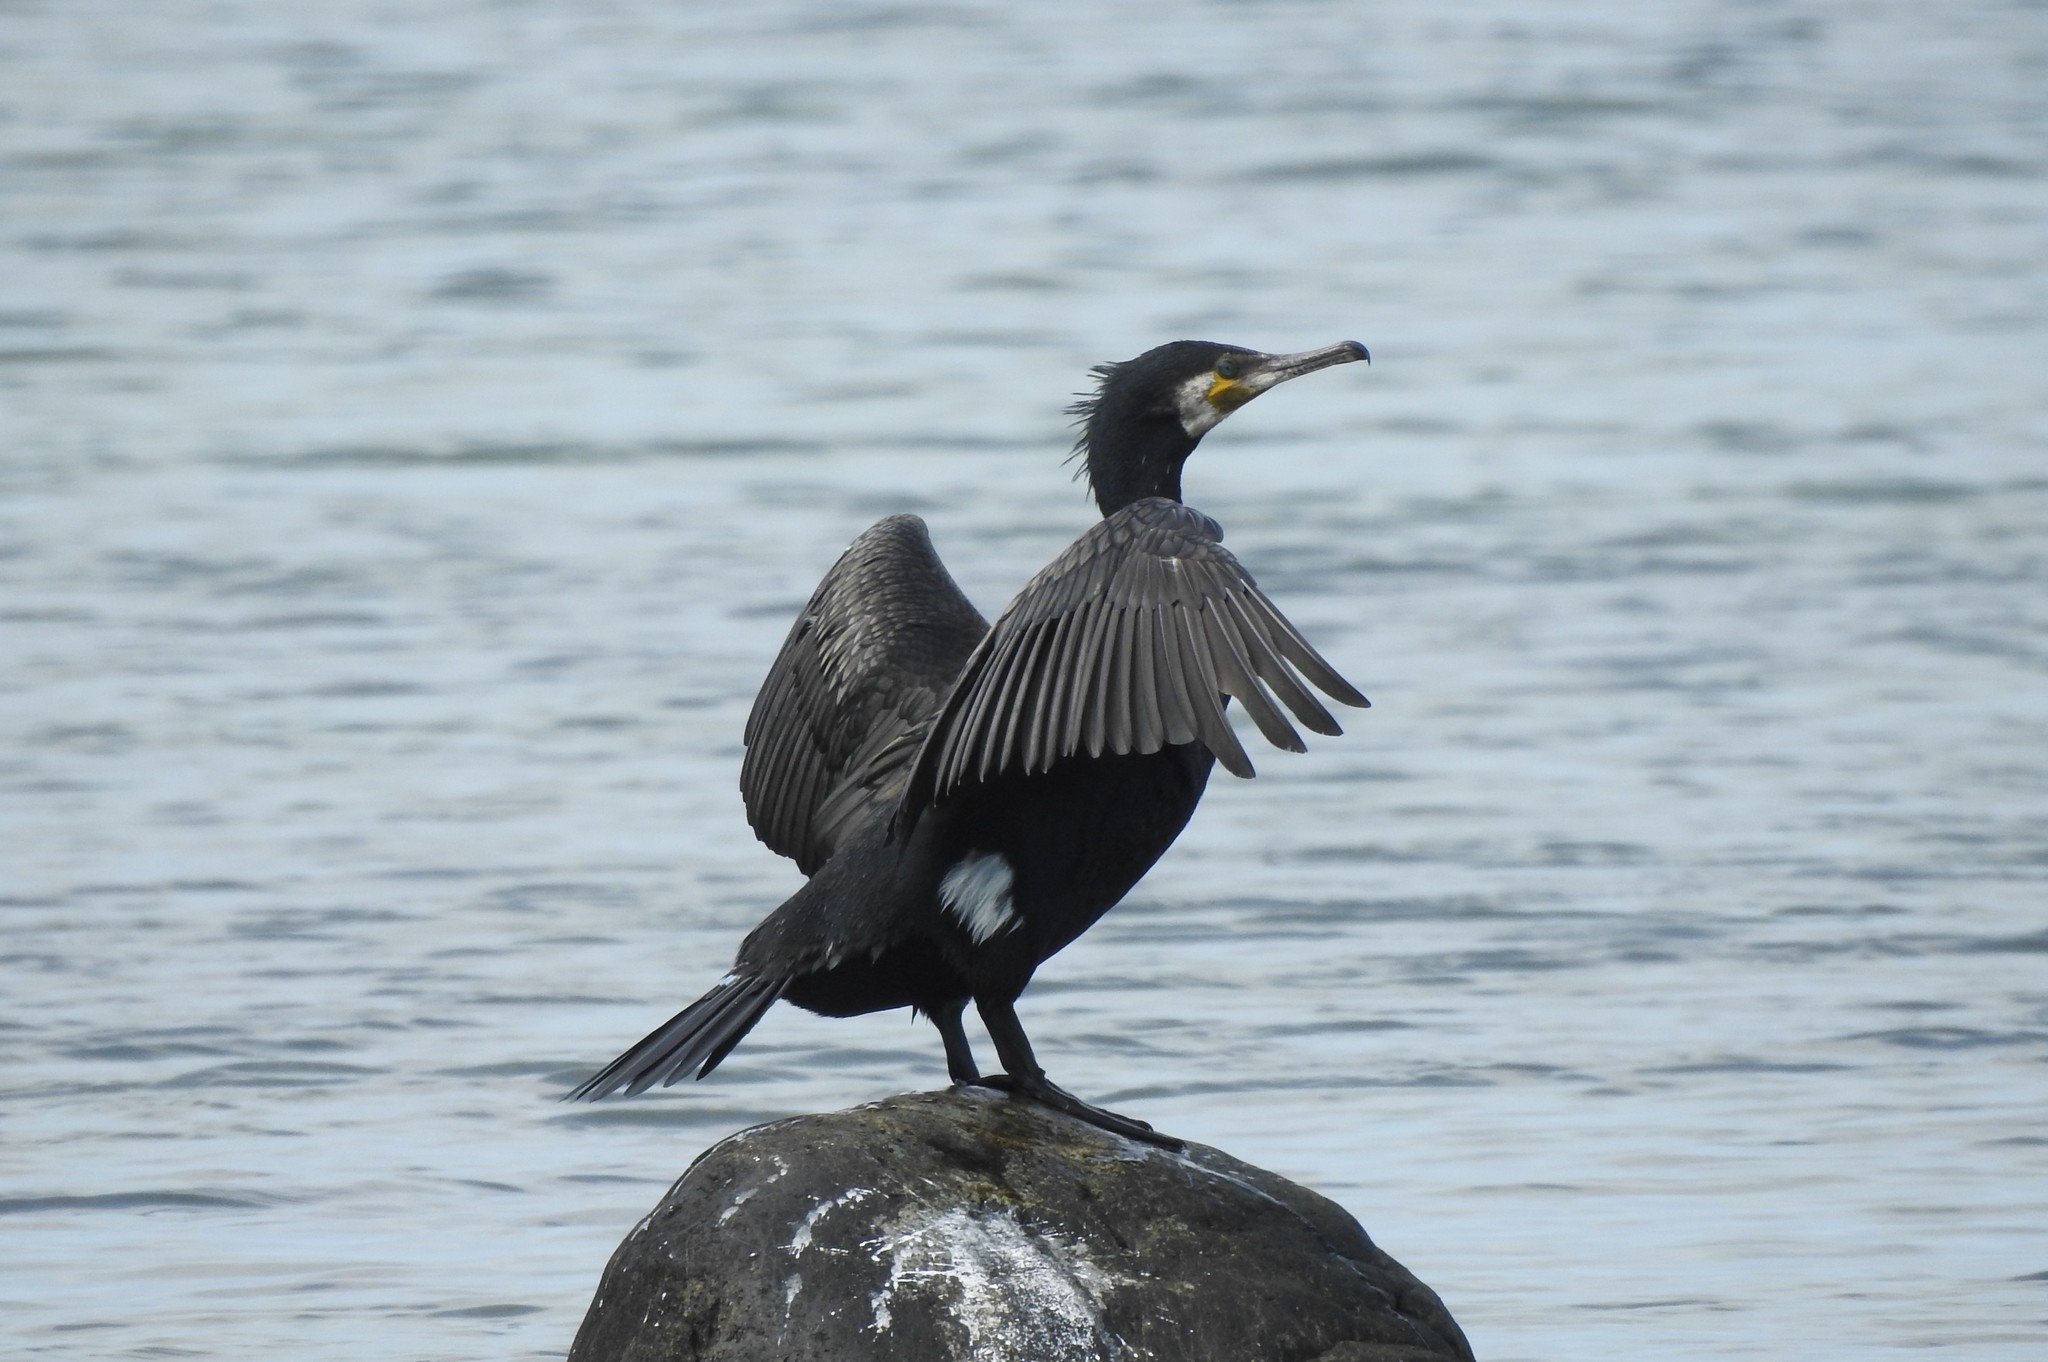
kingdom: Animalia
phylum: Chordata
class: Aves
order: Suliformes
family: Phalacrocoracidae
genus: Phalacrocorax
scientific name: Phalacrocorax carbo
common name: Great cormorant
